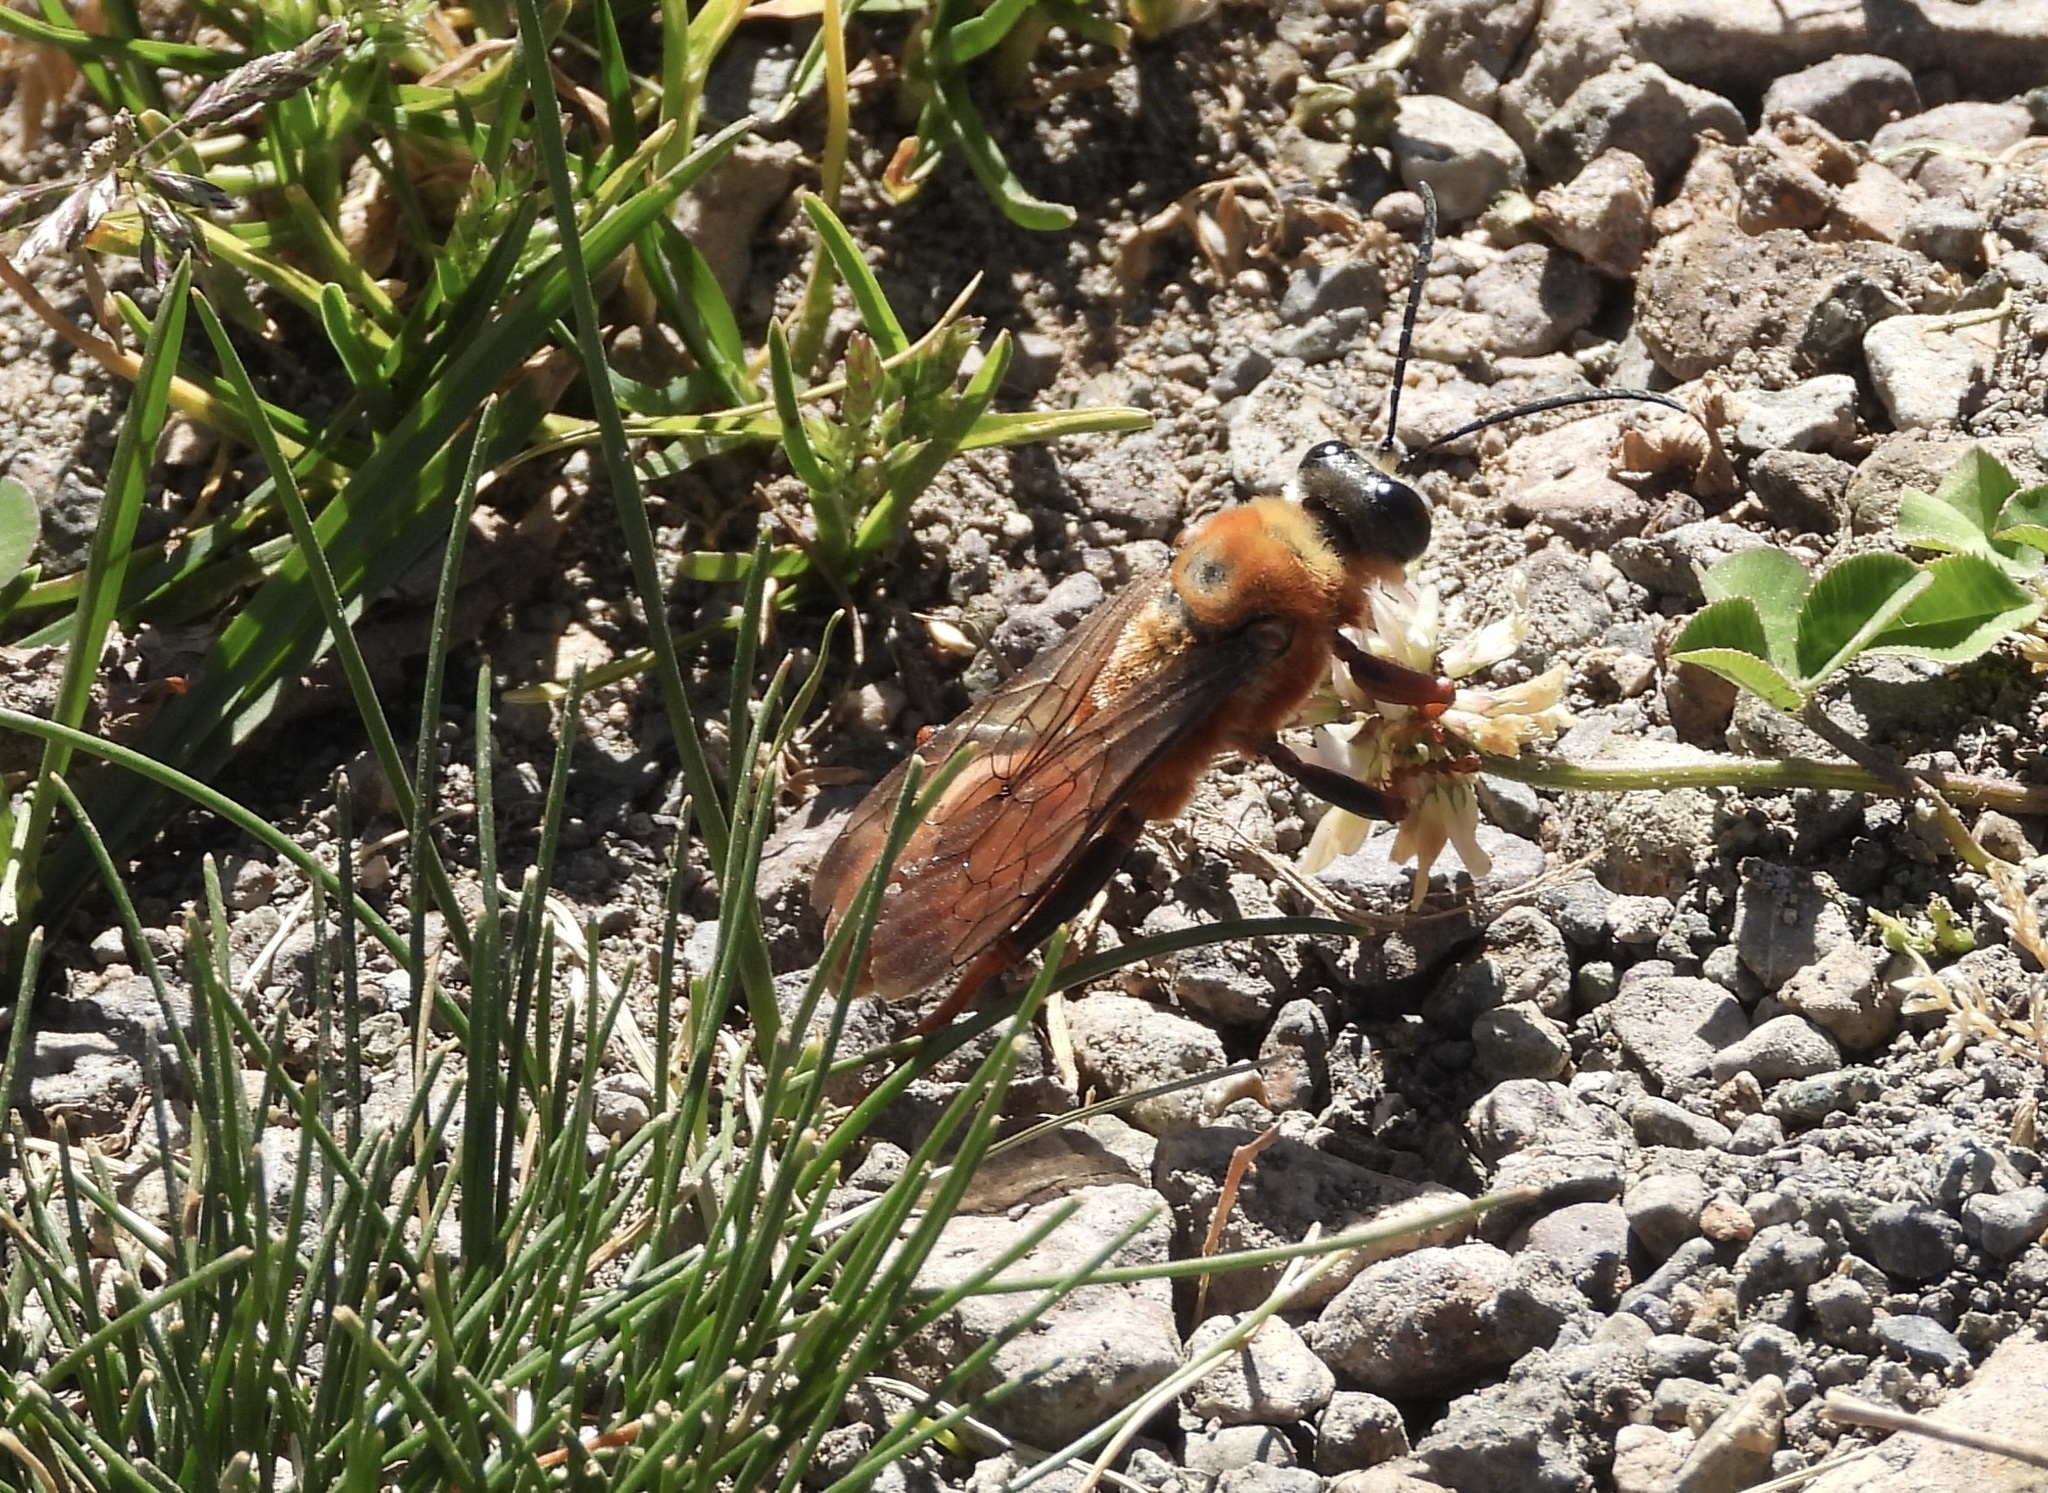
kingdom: Animalia
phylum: Arthropoda
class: Insecta
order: Hymenoptera
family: Sphecidae
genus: Sphex
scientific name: Sphex latreillei
